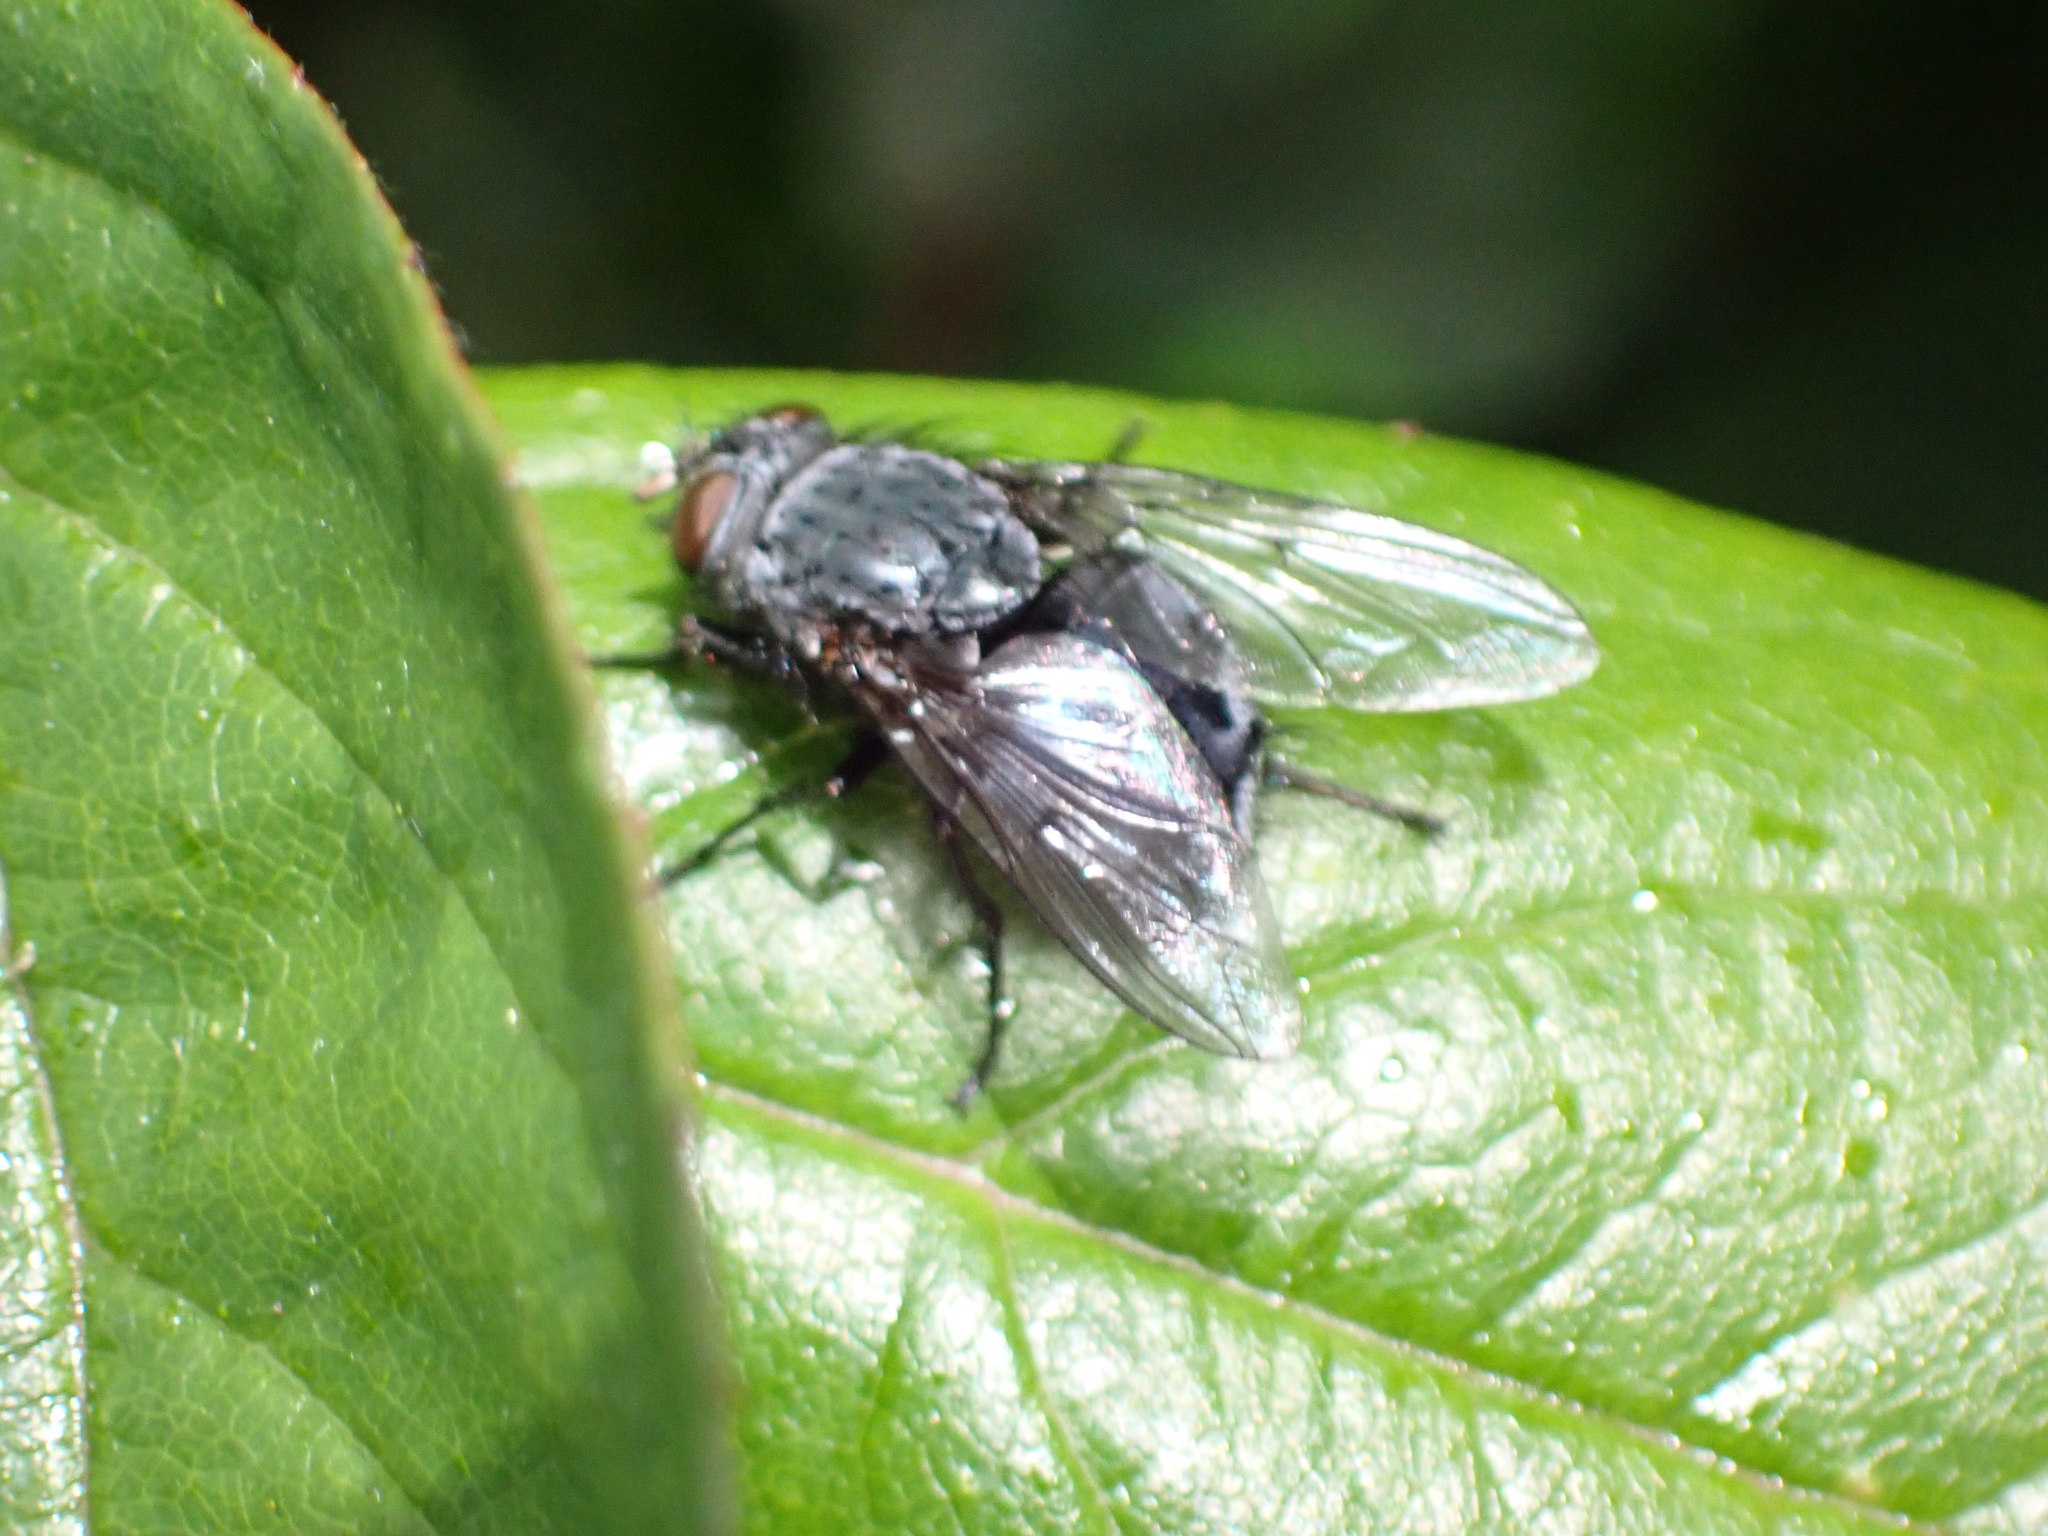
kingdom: Animalia
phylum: Arthropoda
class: Insecta
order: Diptera
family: Calliphoridae
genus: Calliphora
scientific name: Calliphora vicina
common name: Common blow flie
